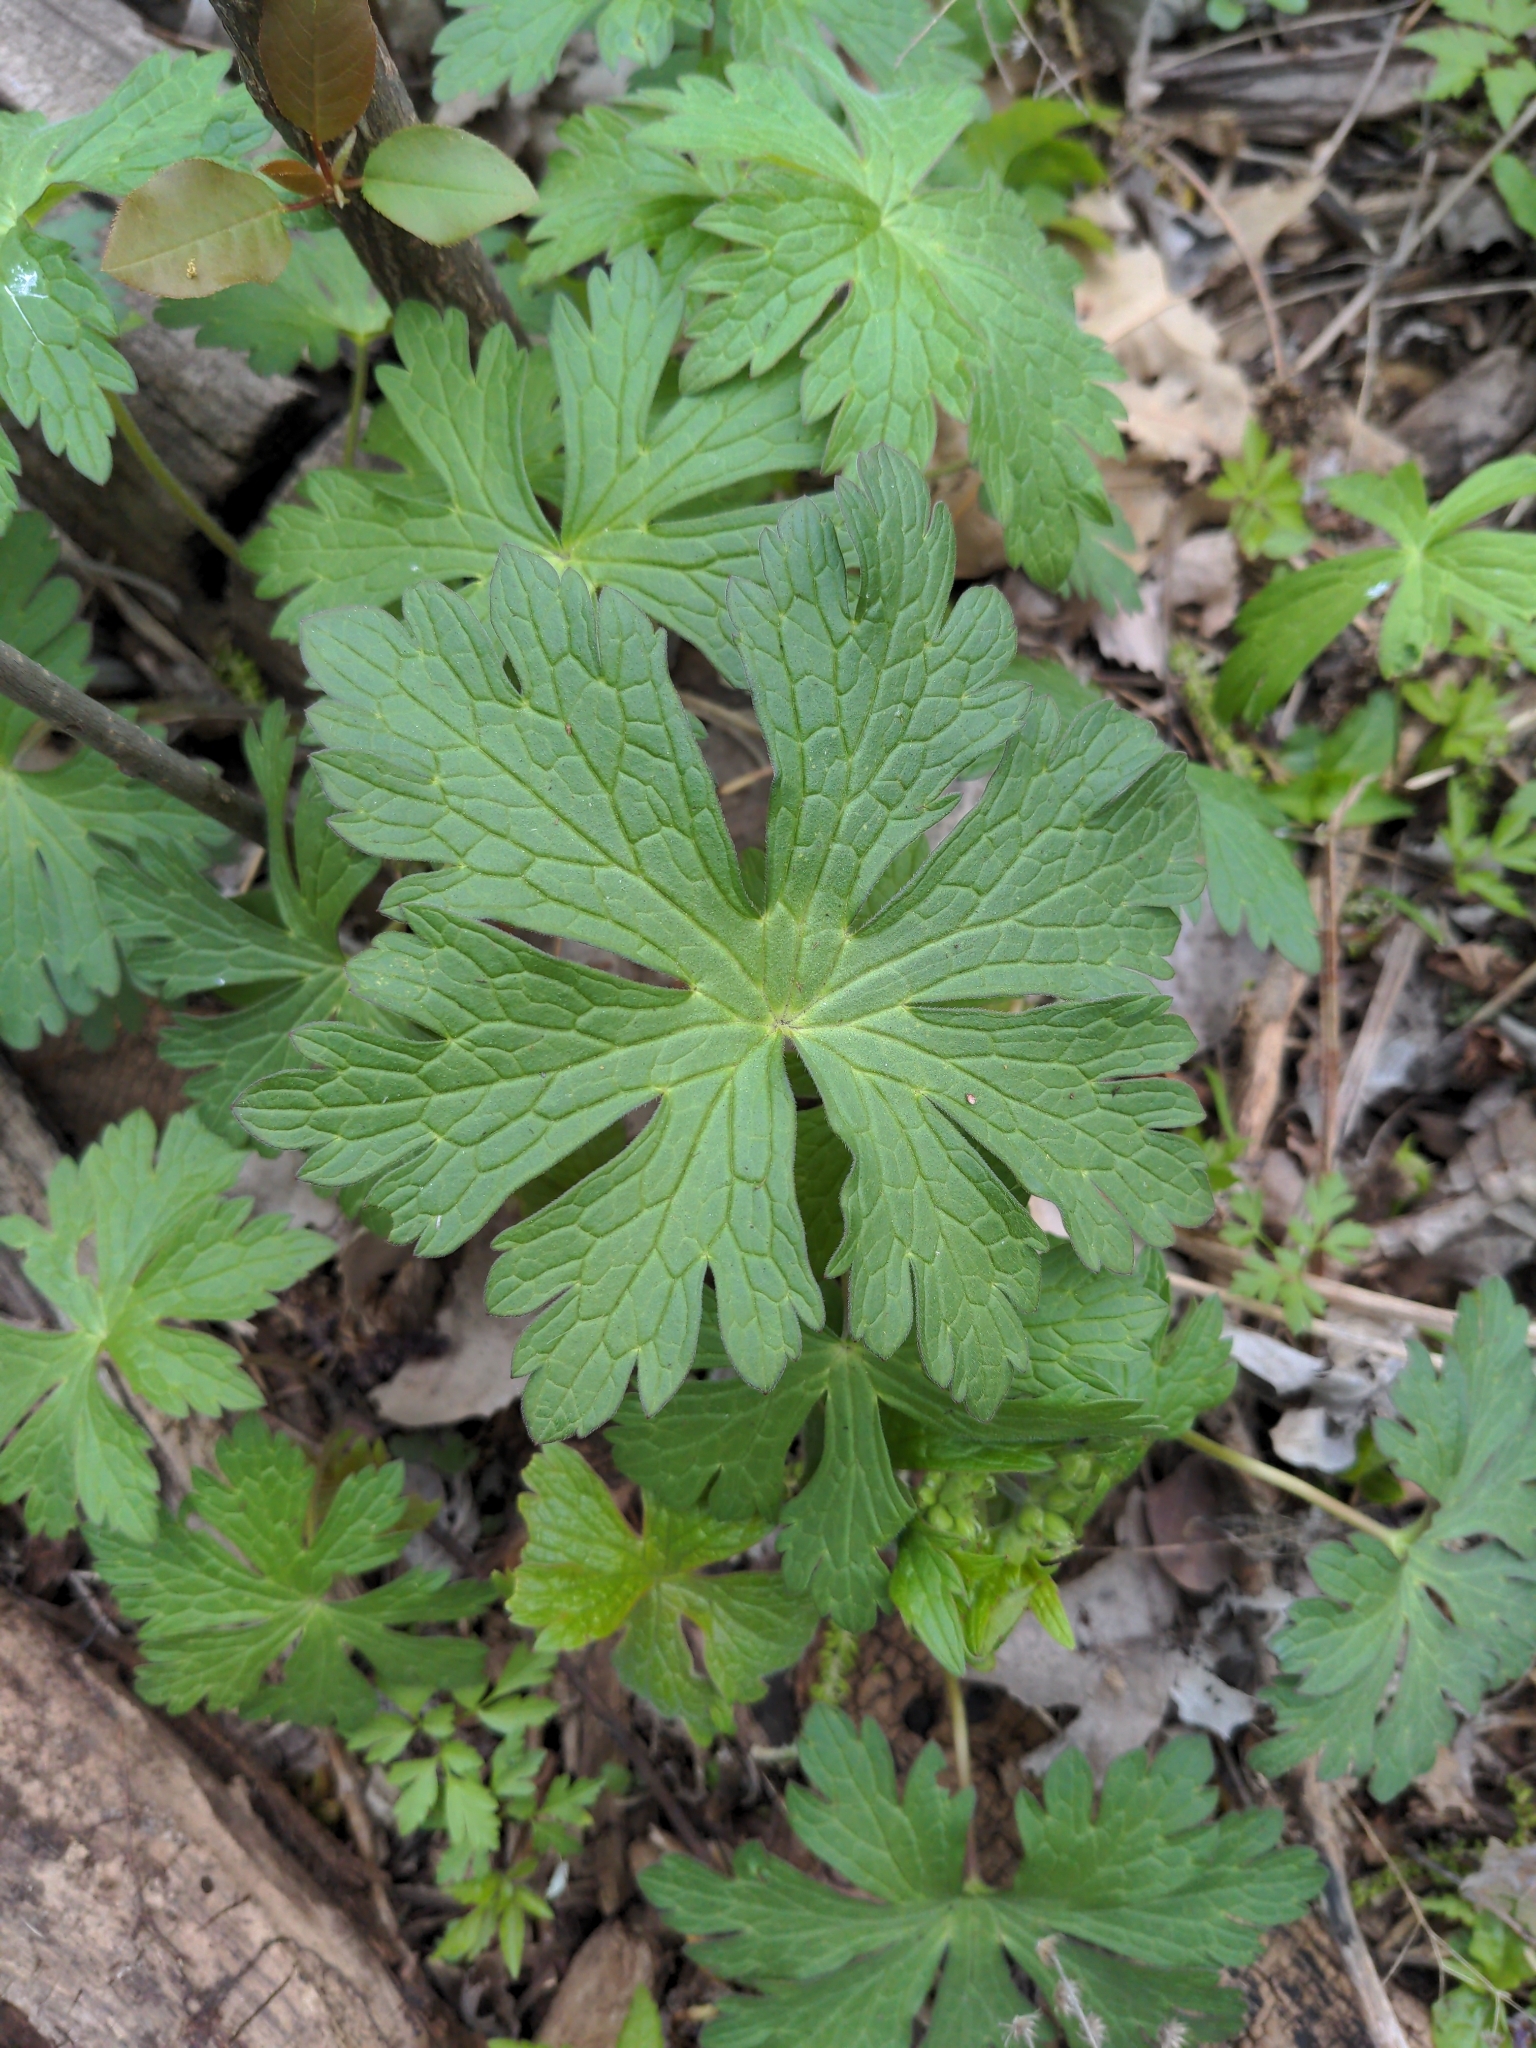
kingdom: Plantae
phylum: Tracheophyta
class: Magnoliopsida
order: Geraniales
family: Geraniaceae
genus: Geranium
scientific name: Geranium maculatum
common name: Spotted geranium
